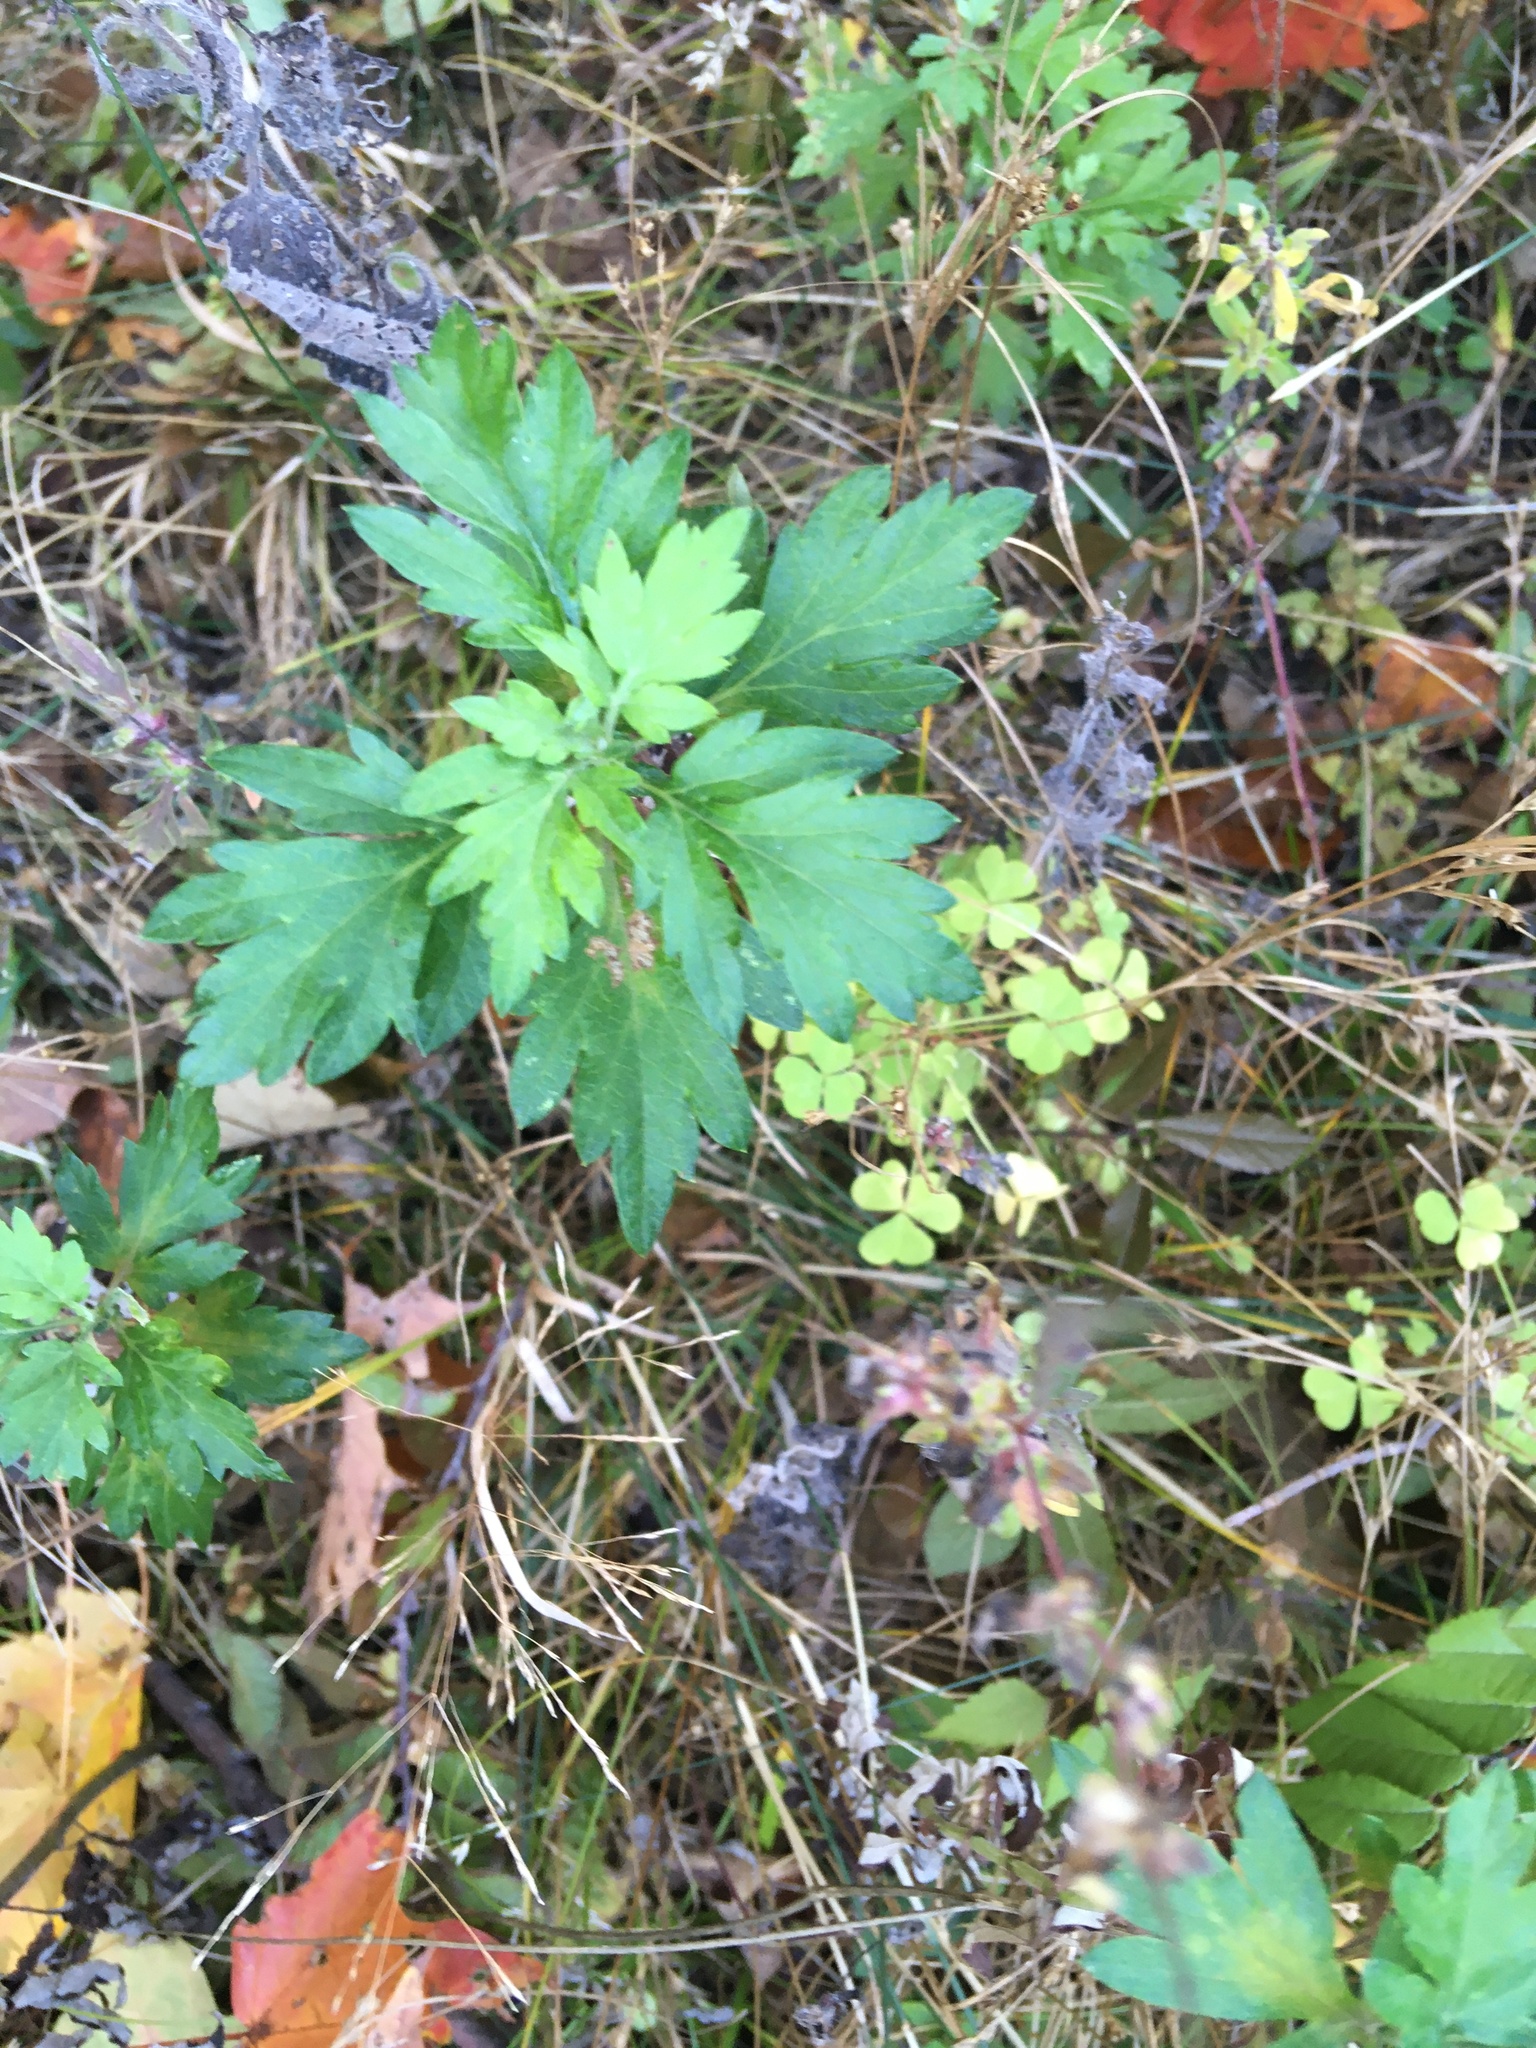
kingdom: Plantae
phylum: Tracheophyta
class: Magnoliopsida
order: Asterales
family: Asteraceae
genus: Artemisia
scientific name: Artemisia vulgaris
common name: Mugwort
